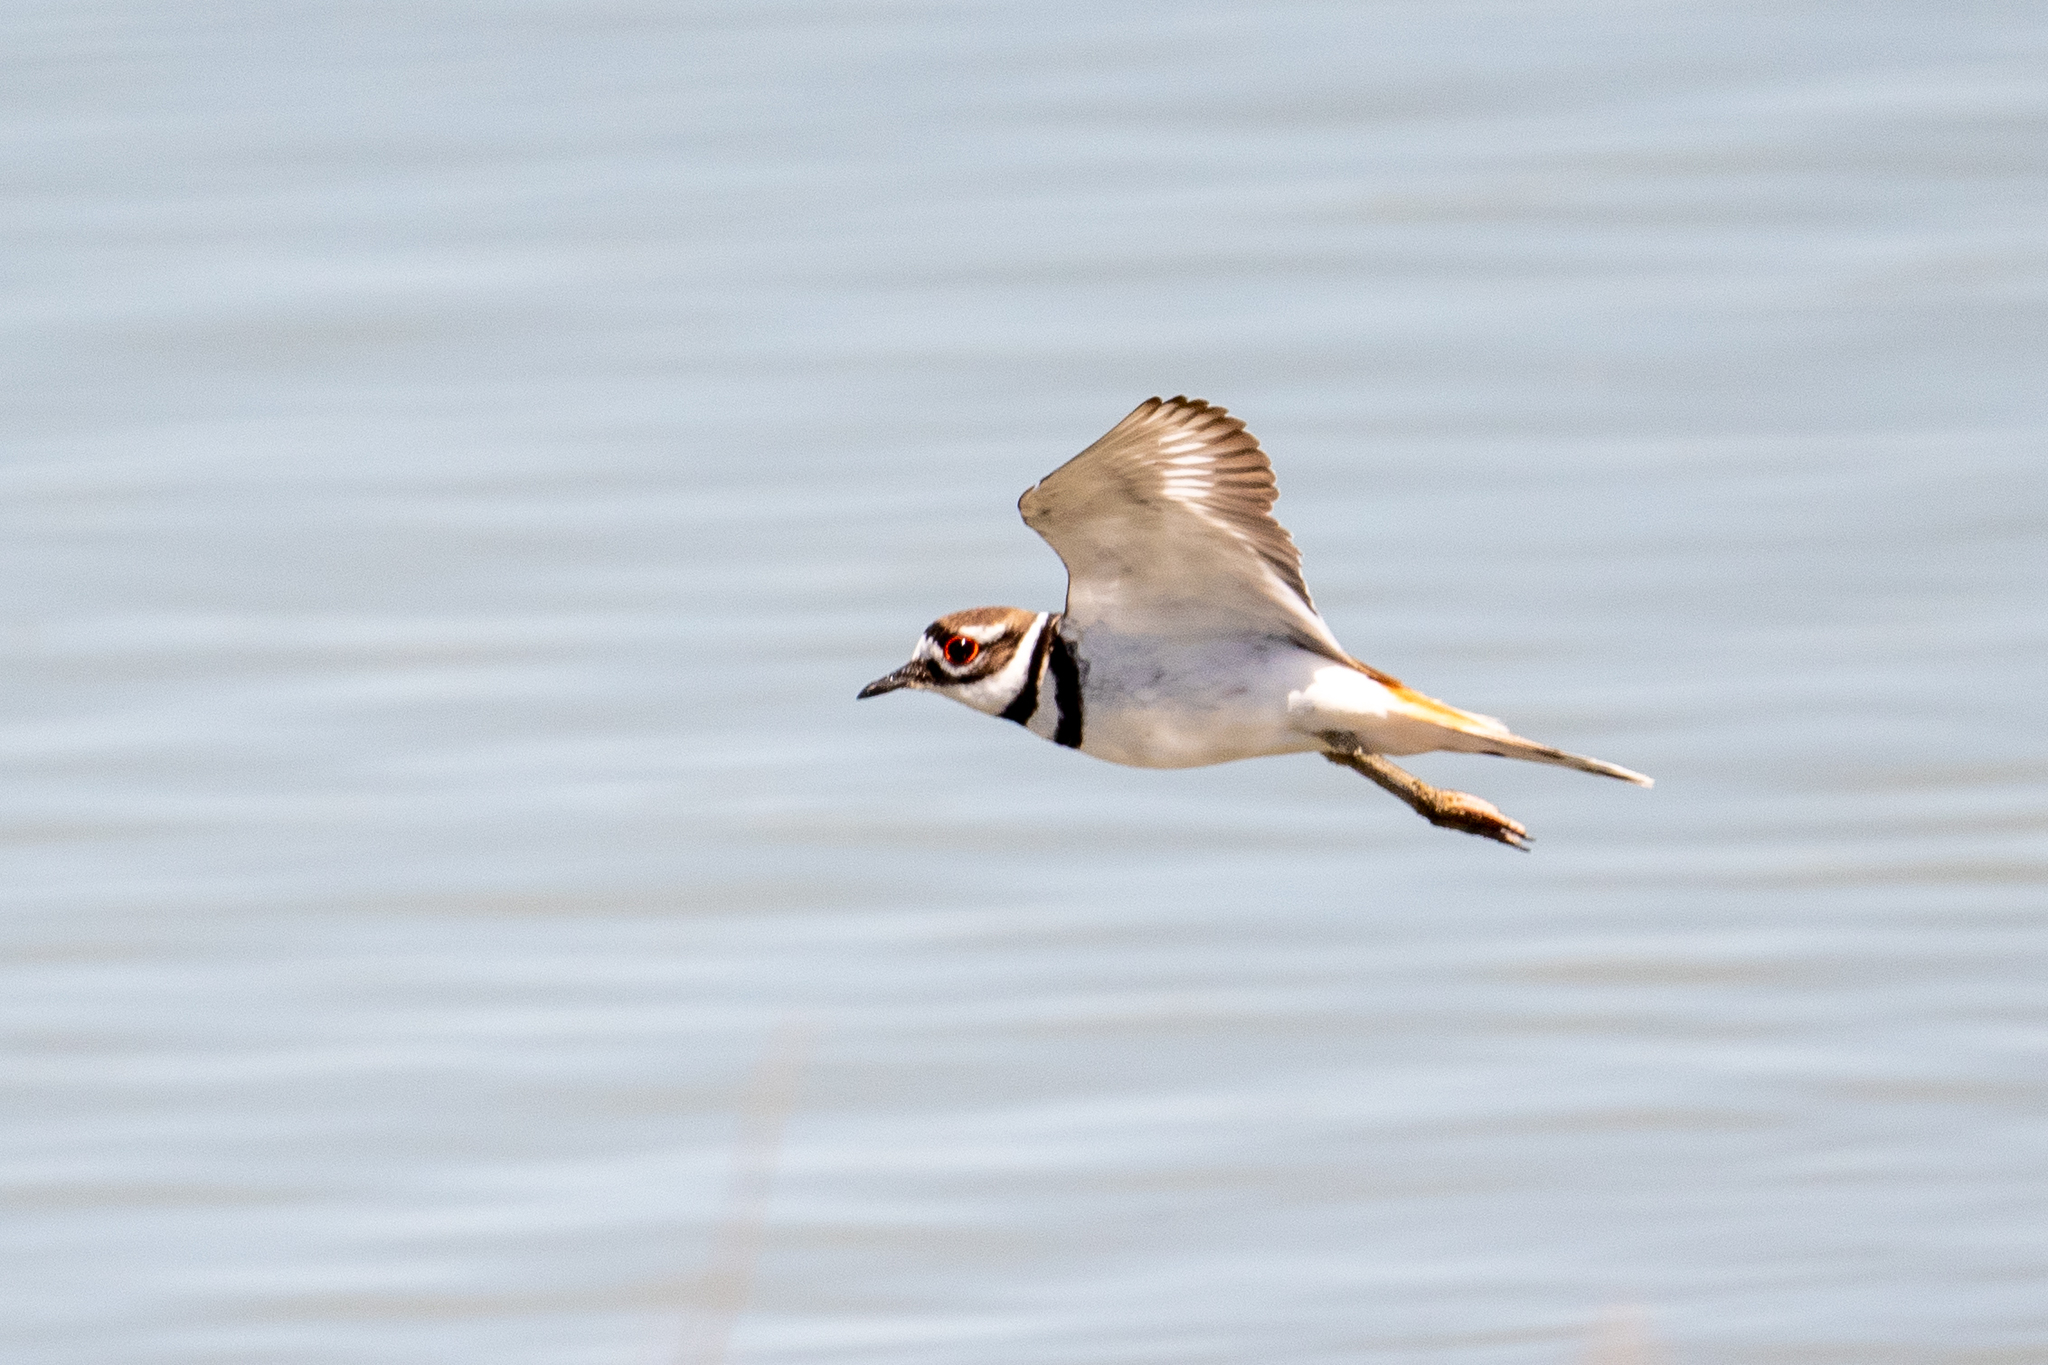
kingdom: Animalia
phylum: Chordata
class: Aves
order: Charadriiformes
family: Charadriidae
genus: Charadrius
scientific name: Charadrius vociferus
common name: Killdeer
